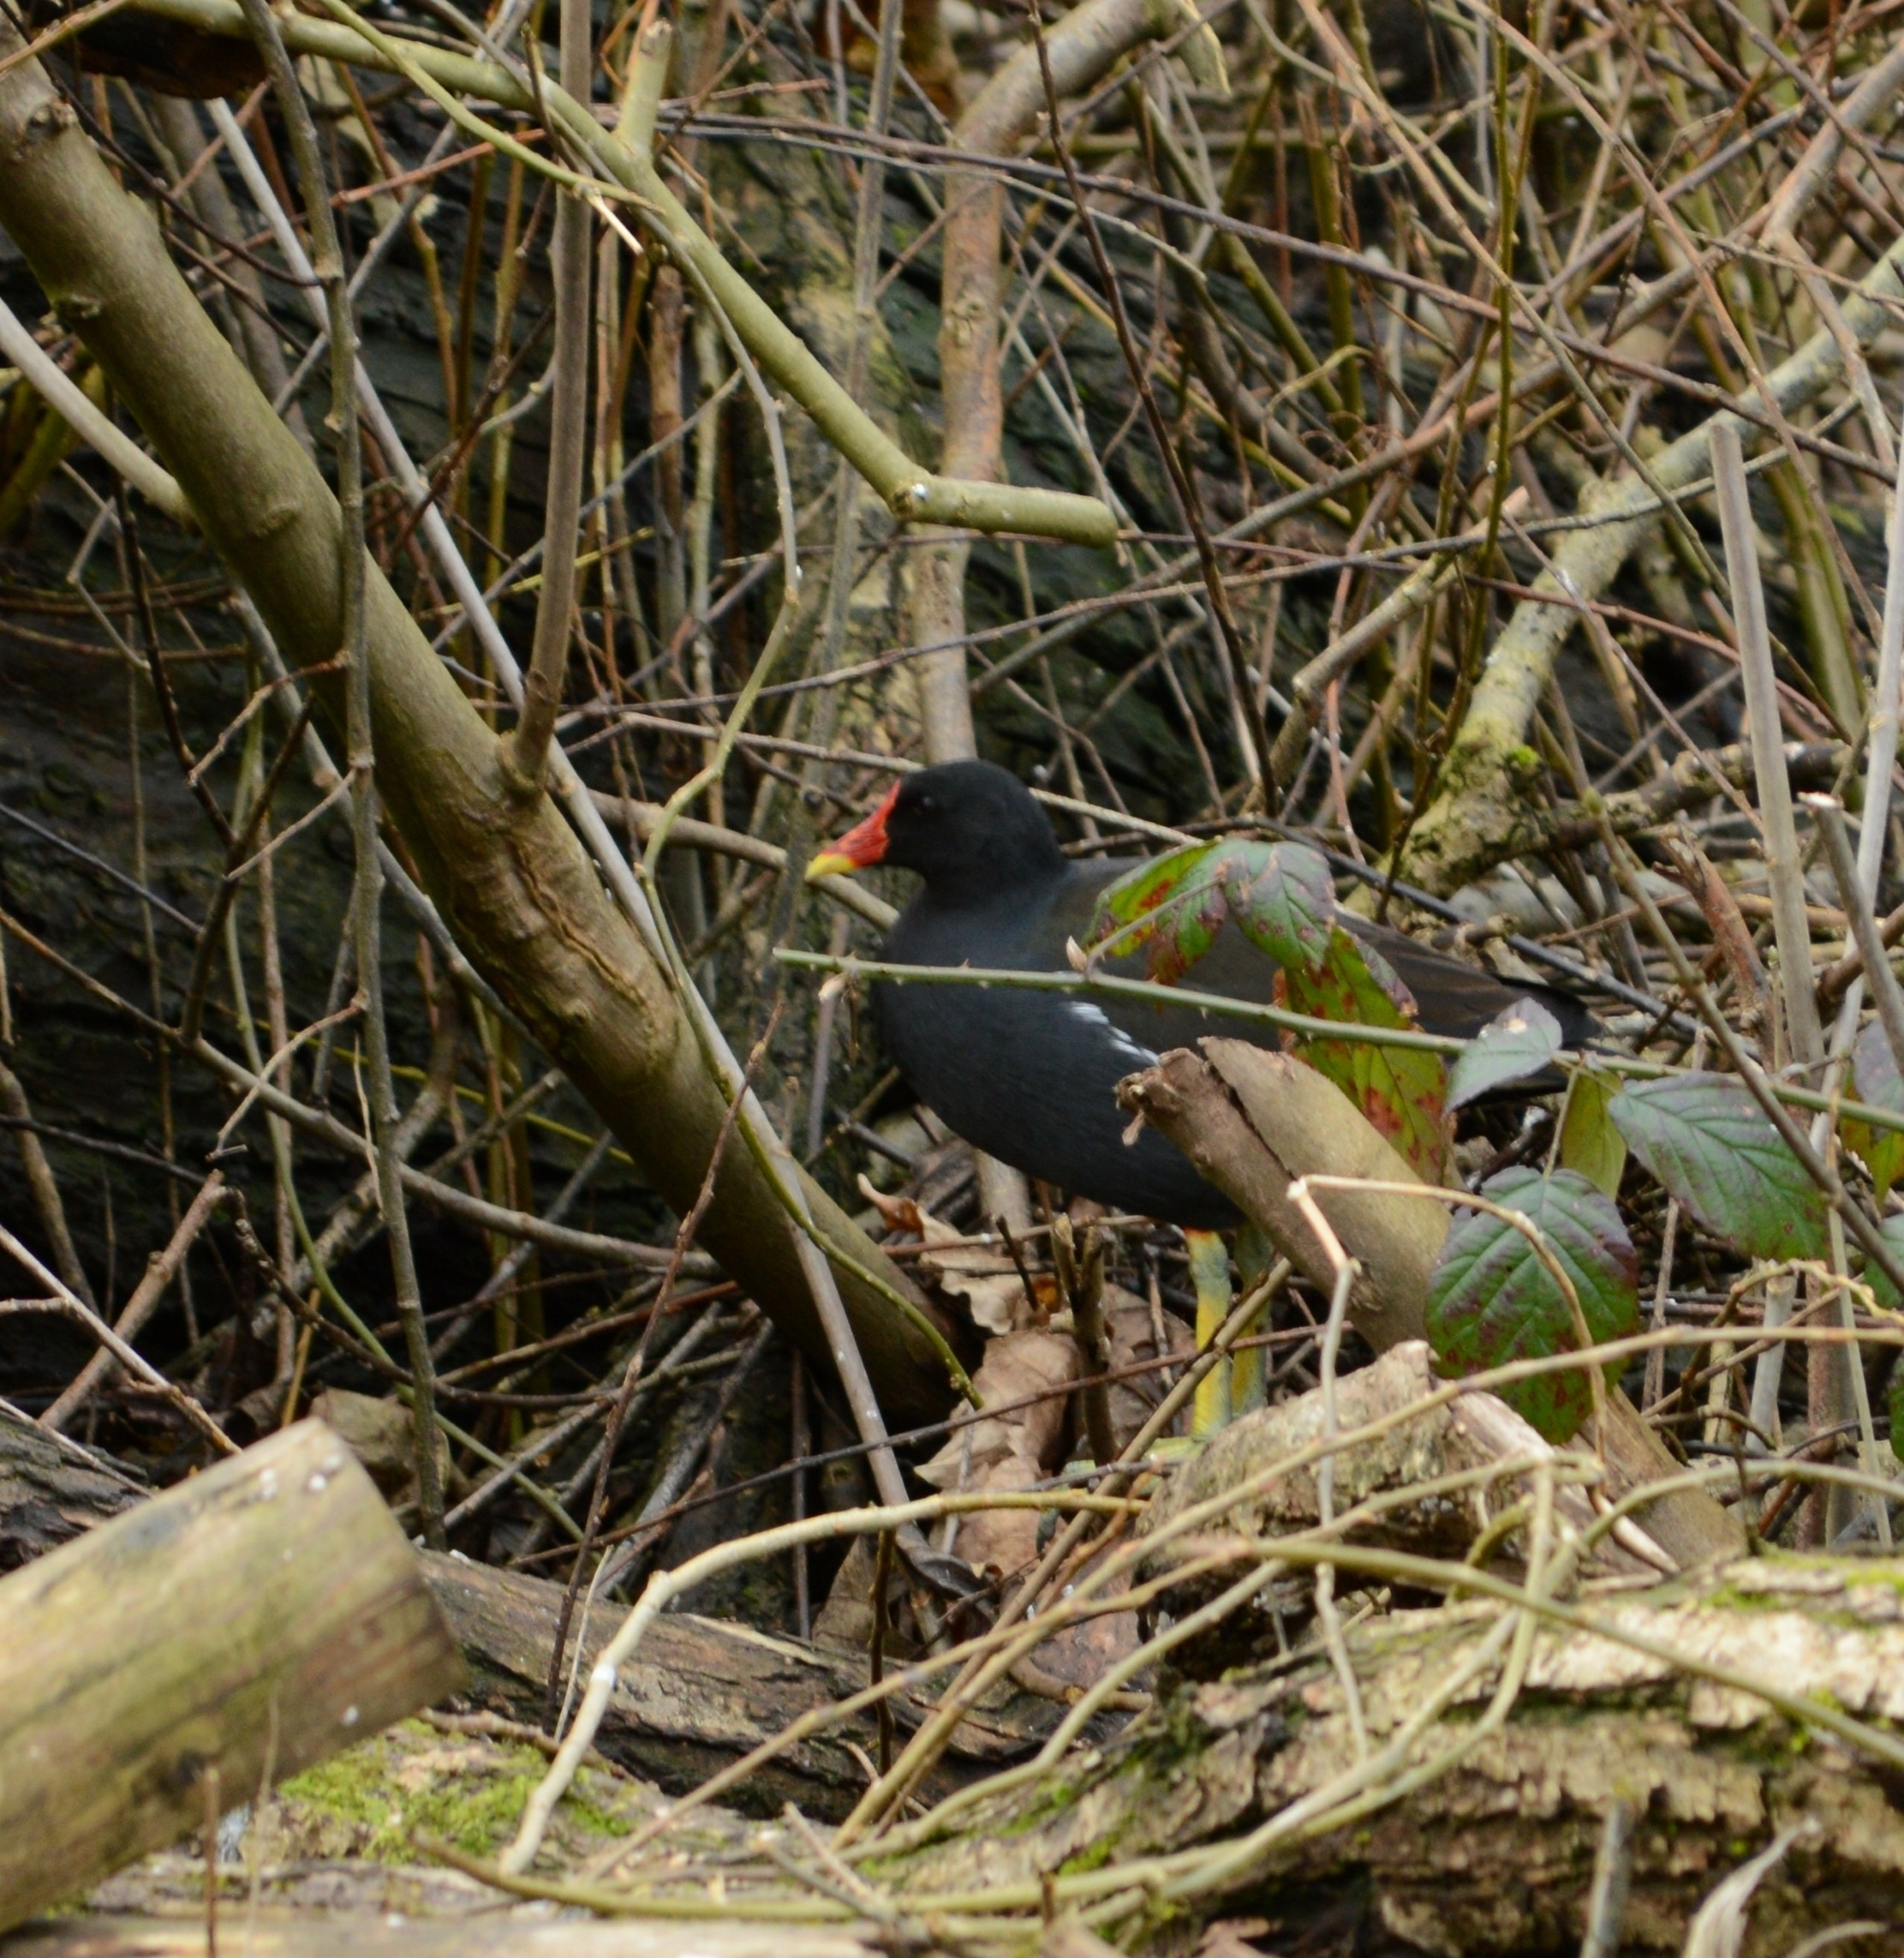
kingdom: Animalia
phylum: Chordata
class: Aves
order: Gruiformes
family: Rallidae
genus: Gallinula
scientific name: Gallinula chloropus
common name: Common moorhen
